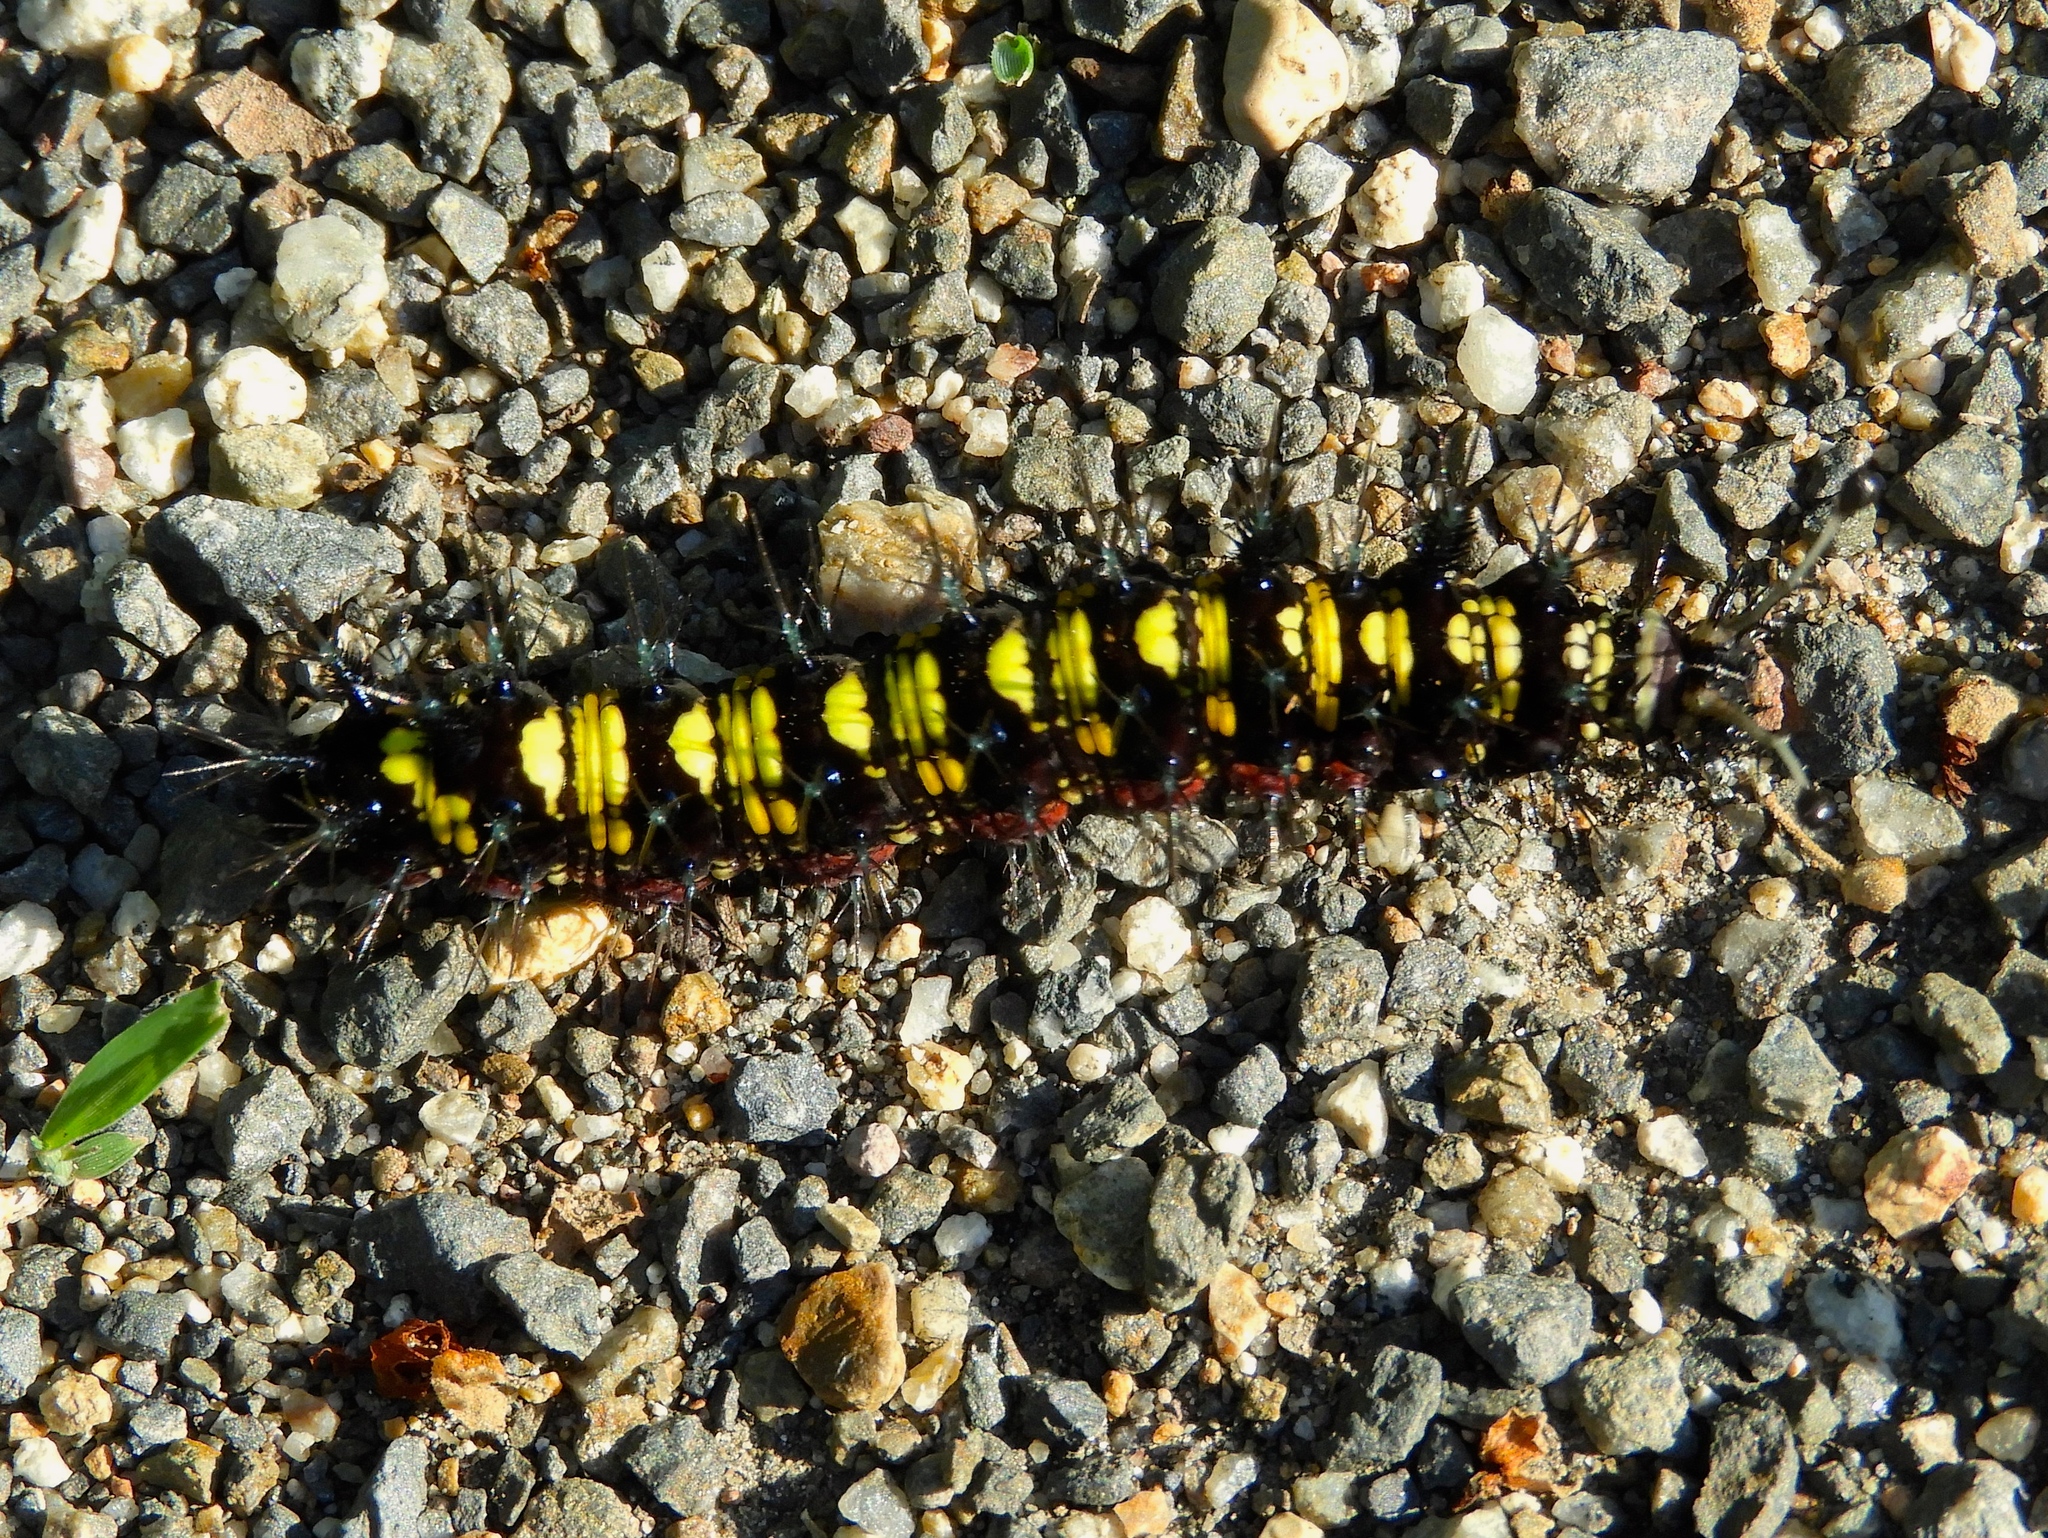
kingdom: Animalia
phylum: Arthropoda
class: Insecta
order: Lepidoptera
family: Nymphalidae
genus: Hamadryas
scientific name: Hamadryas guatemalena
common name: Guatemalan cracker
